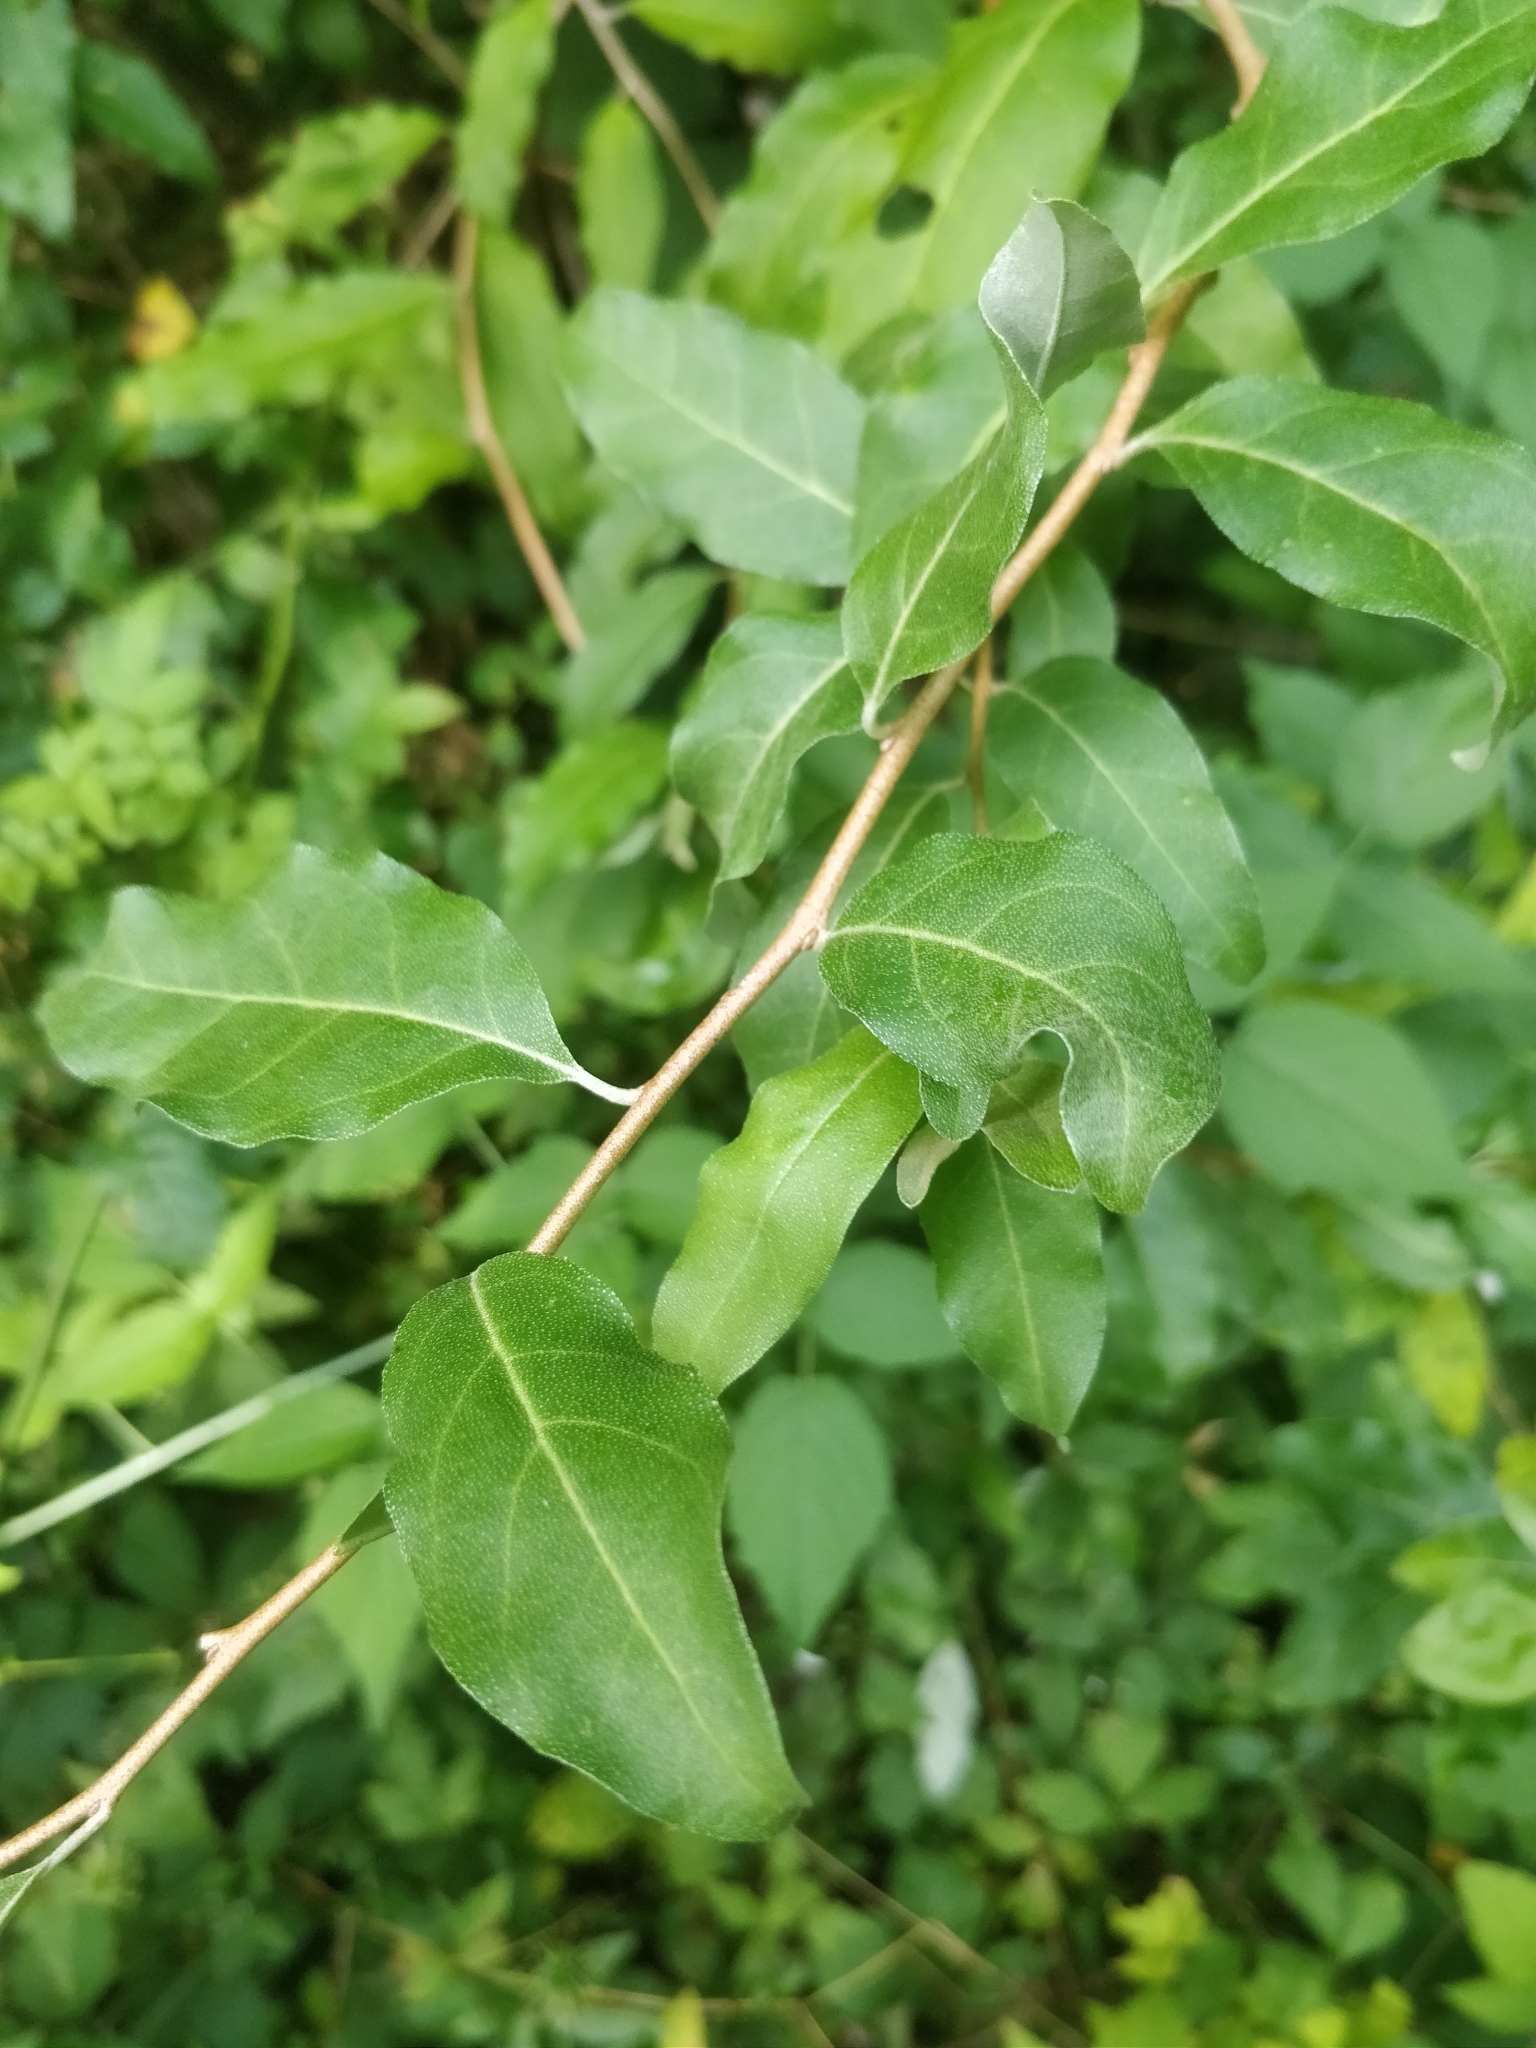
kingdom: Plantae
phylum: Tracheophyta
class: Magnoliopsida
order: Rosales
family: Elaeagnaceae
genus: Elaeagnus
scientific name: Elaeagnus umbellata
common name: Autumn olive
